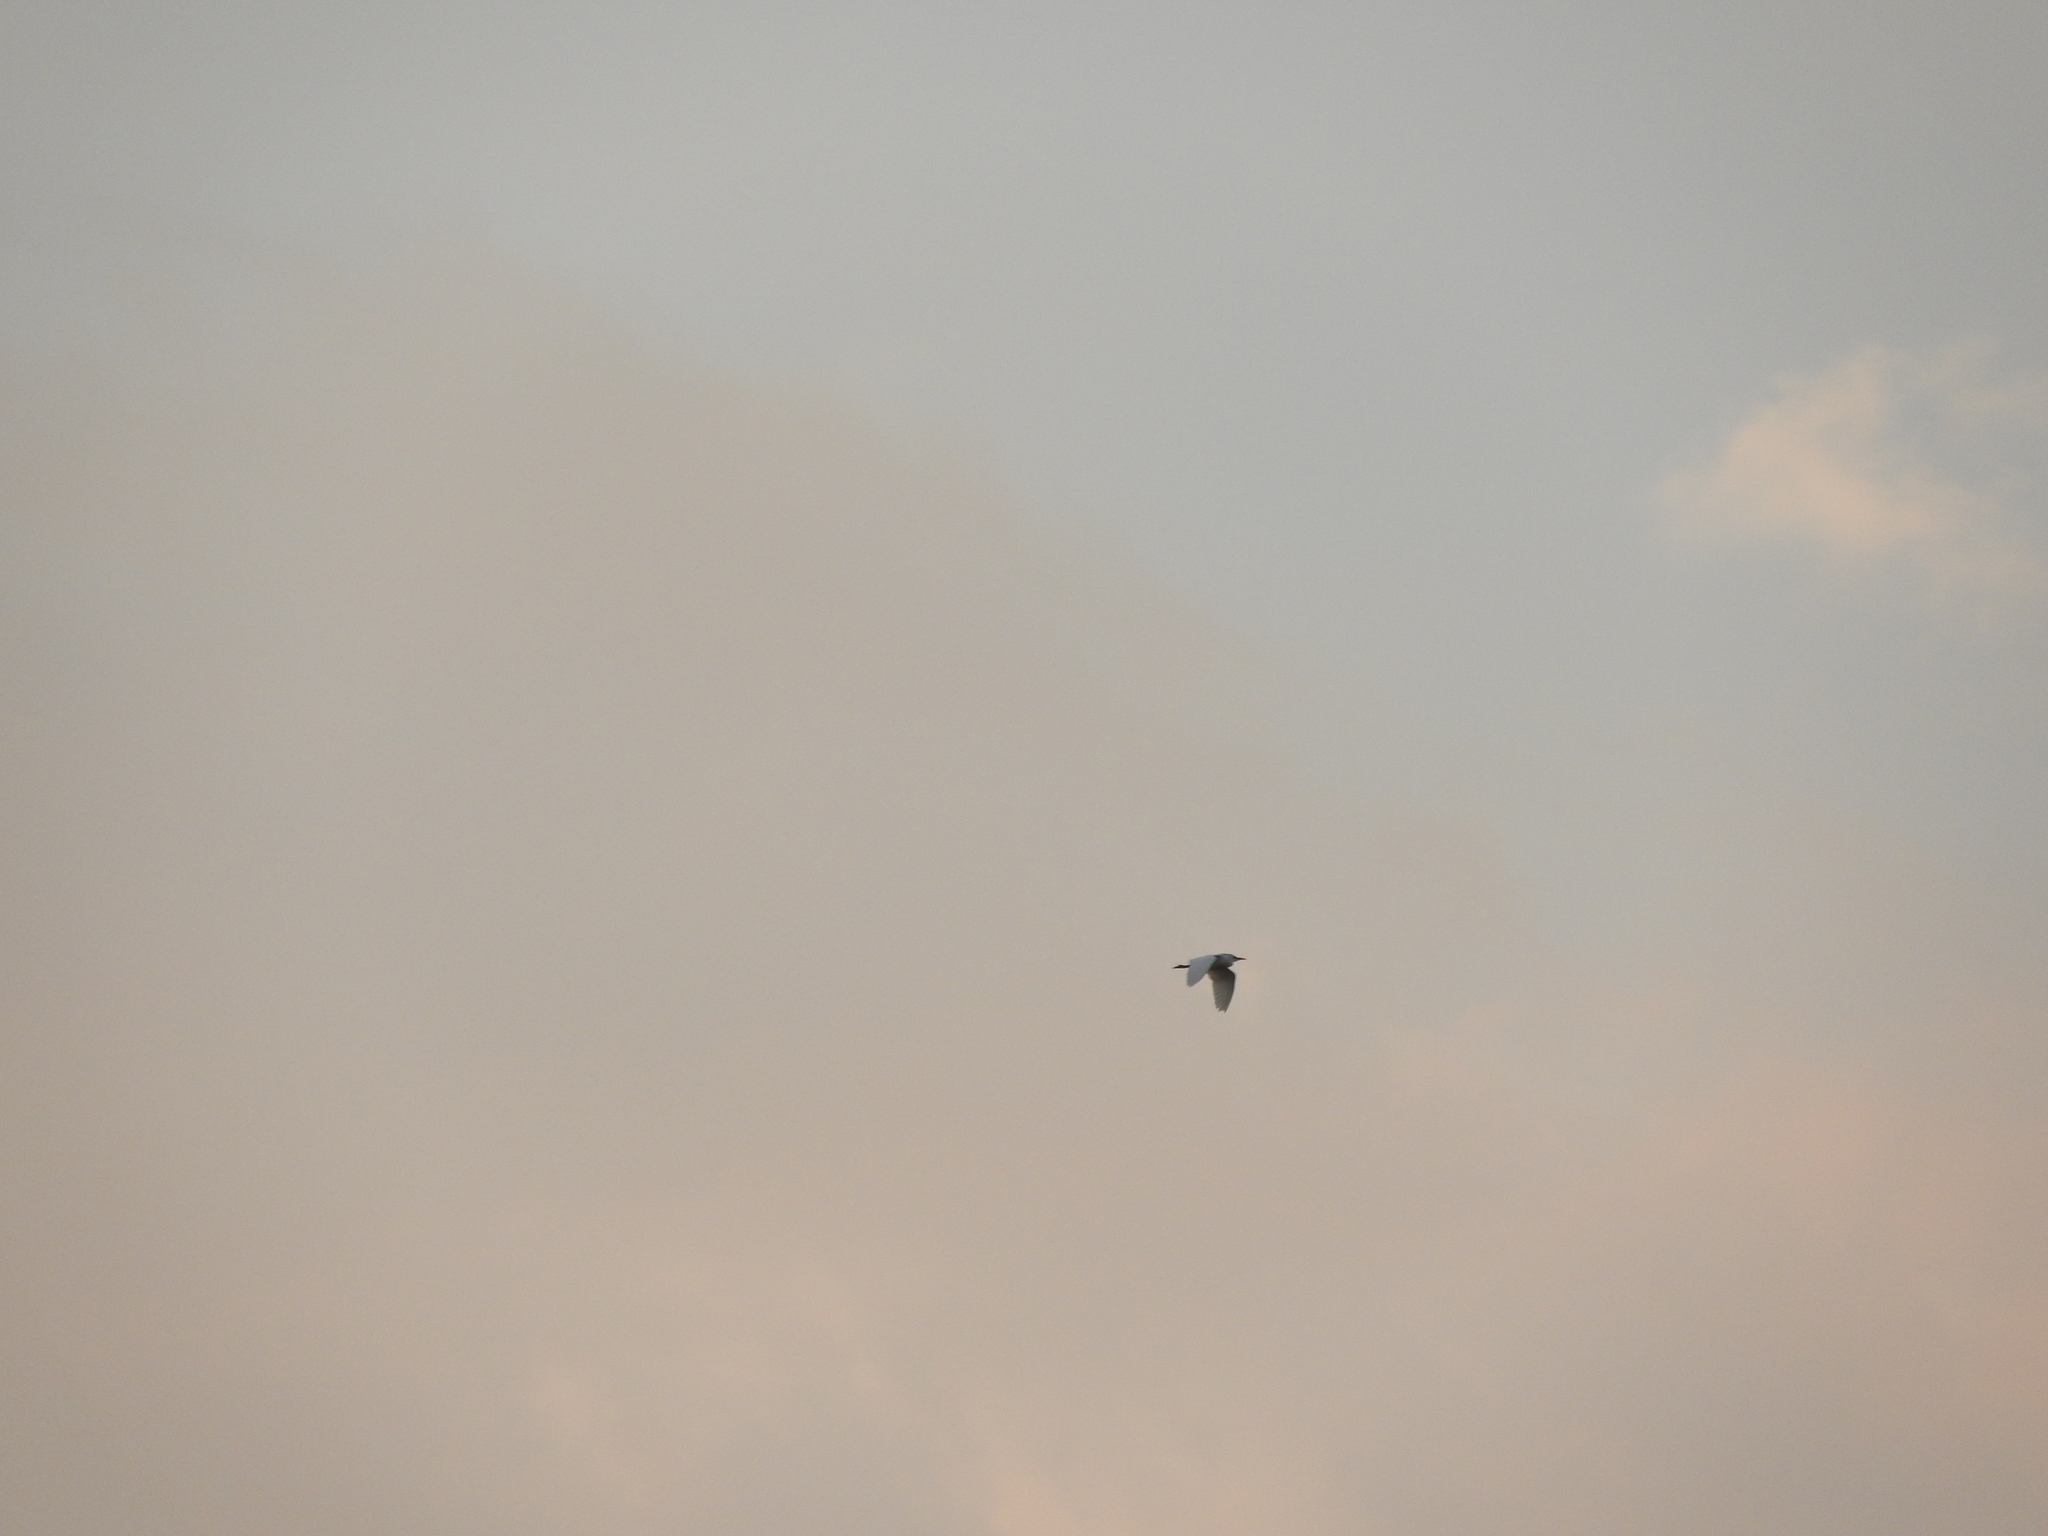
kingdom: Animalia
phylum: Chordata
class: Aves
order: Pelecaniformes
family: Ardeidae
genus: Bubulcus
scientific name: Bubulcus ibis
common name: Cattle egret
